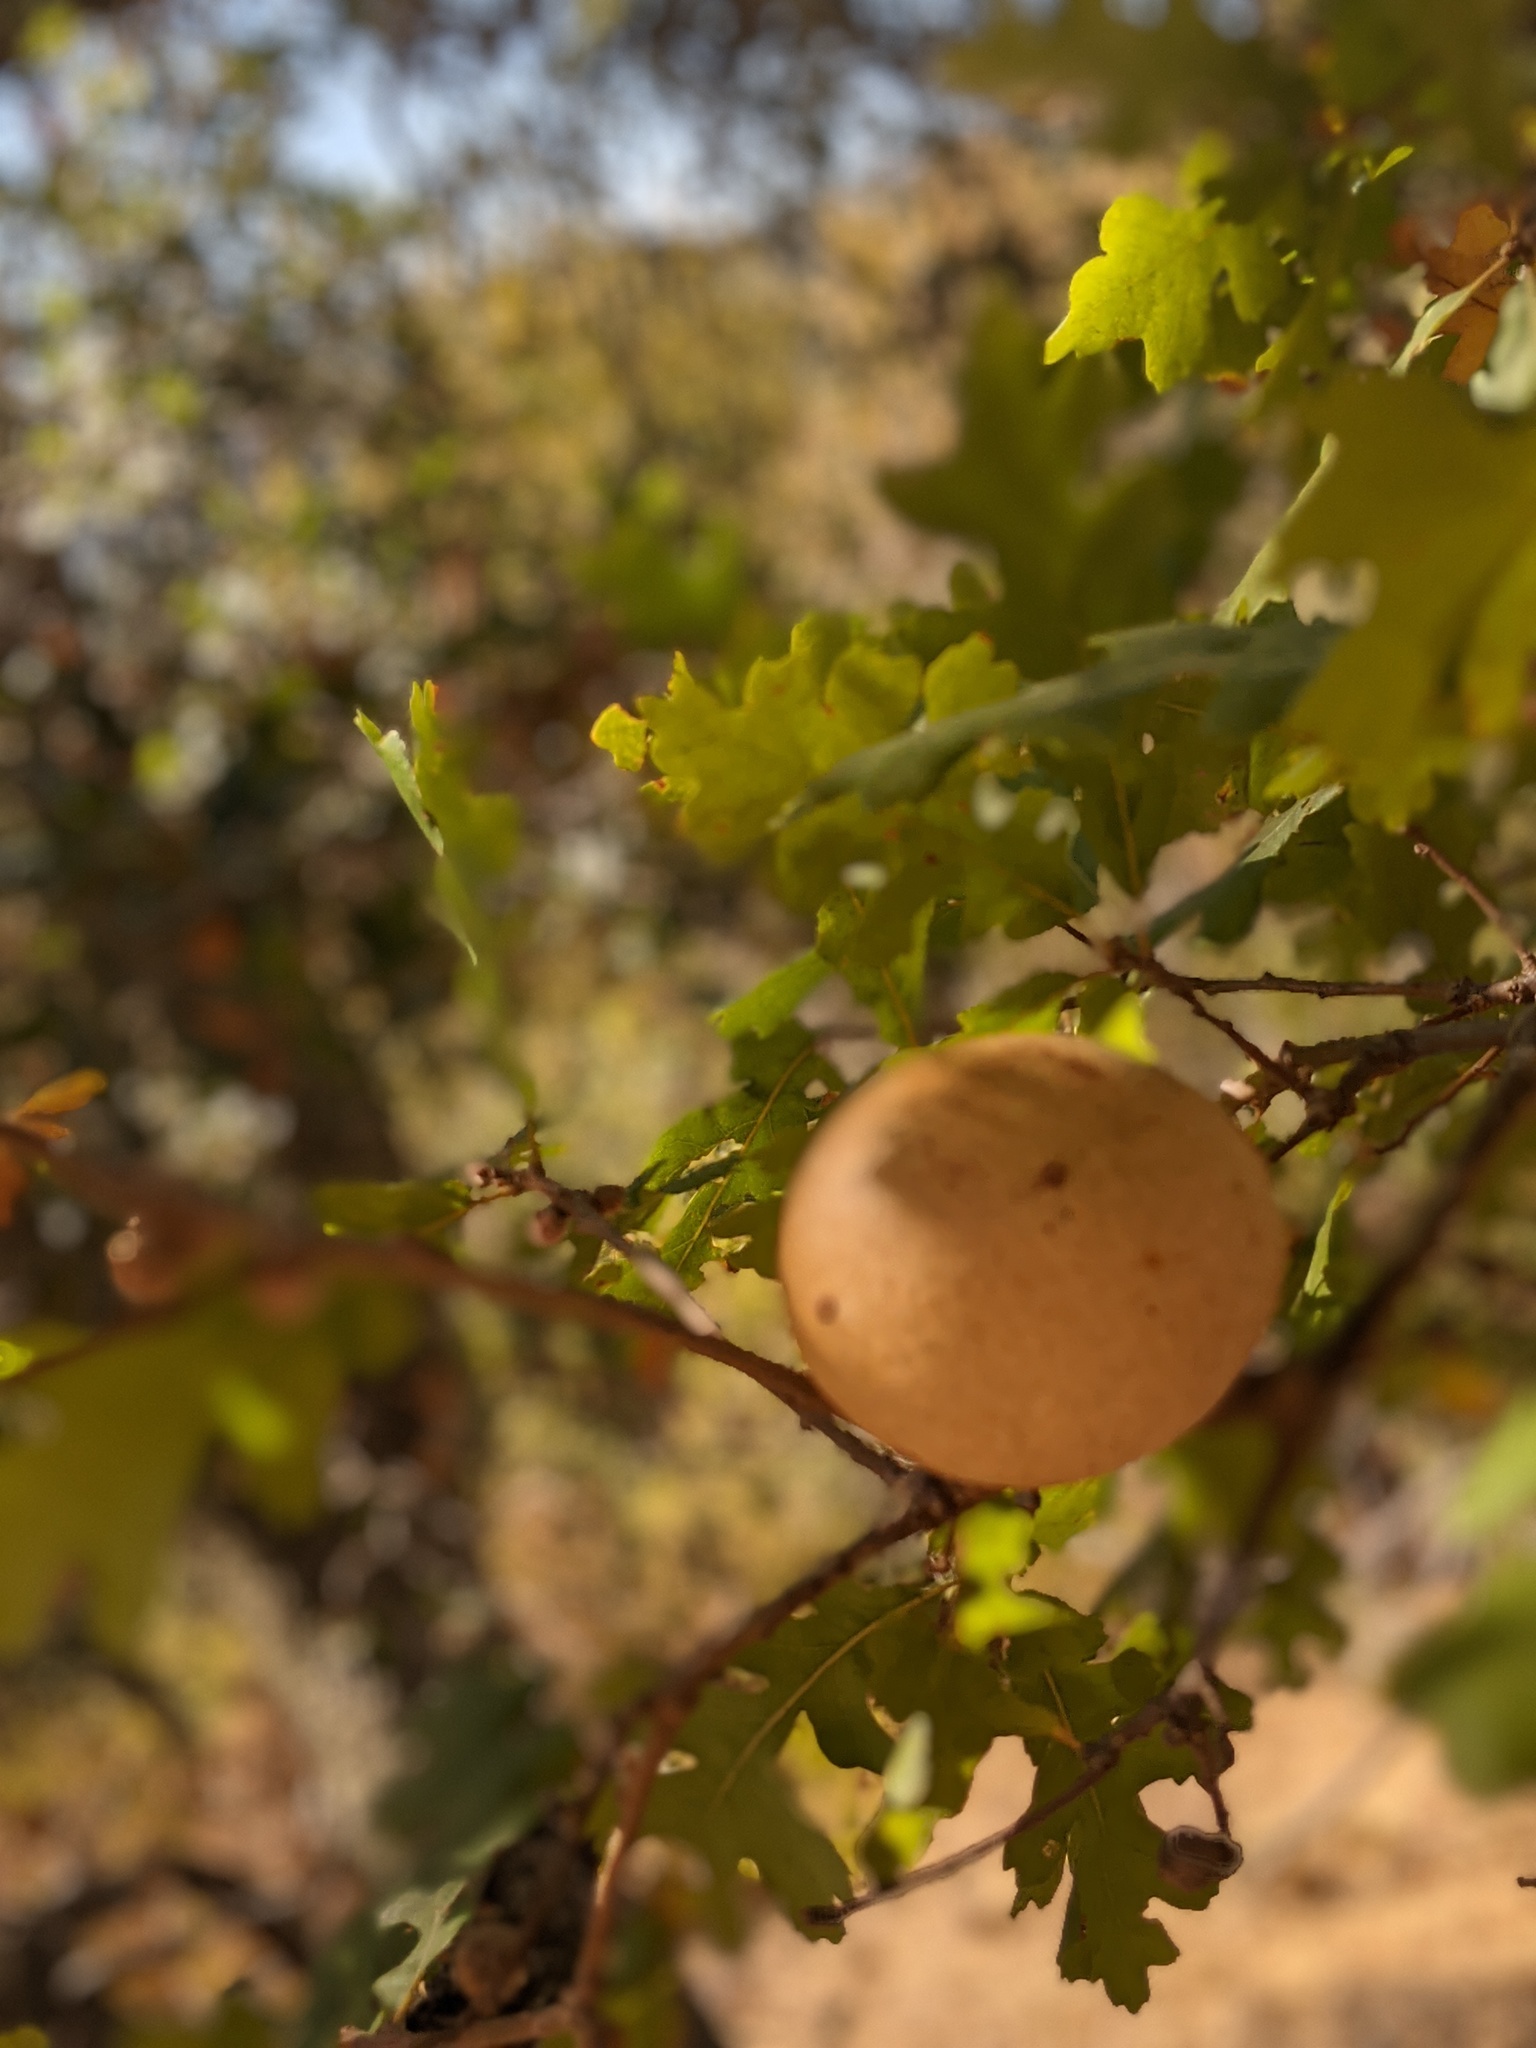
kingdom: Animalia
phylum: Arthropoda
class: Insecta
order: Hymenoptera
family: Cynipidae
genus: Andricus
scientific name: Andricus quercuscalifornicus
